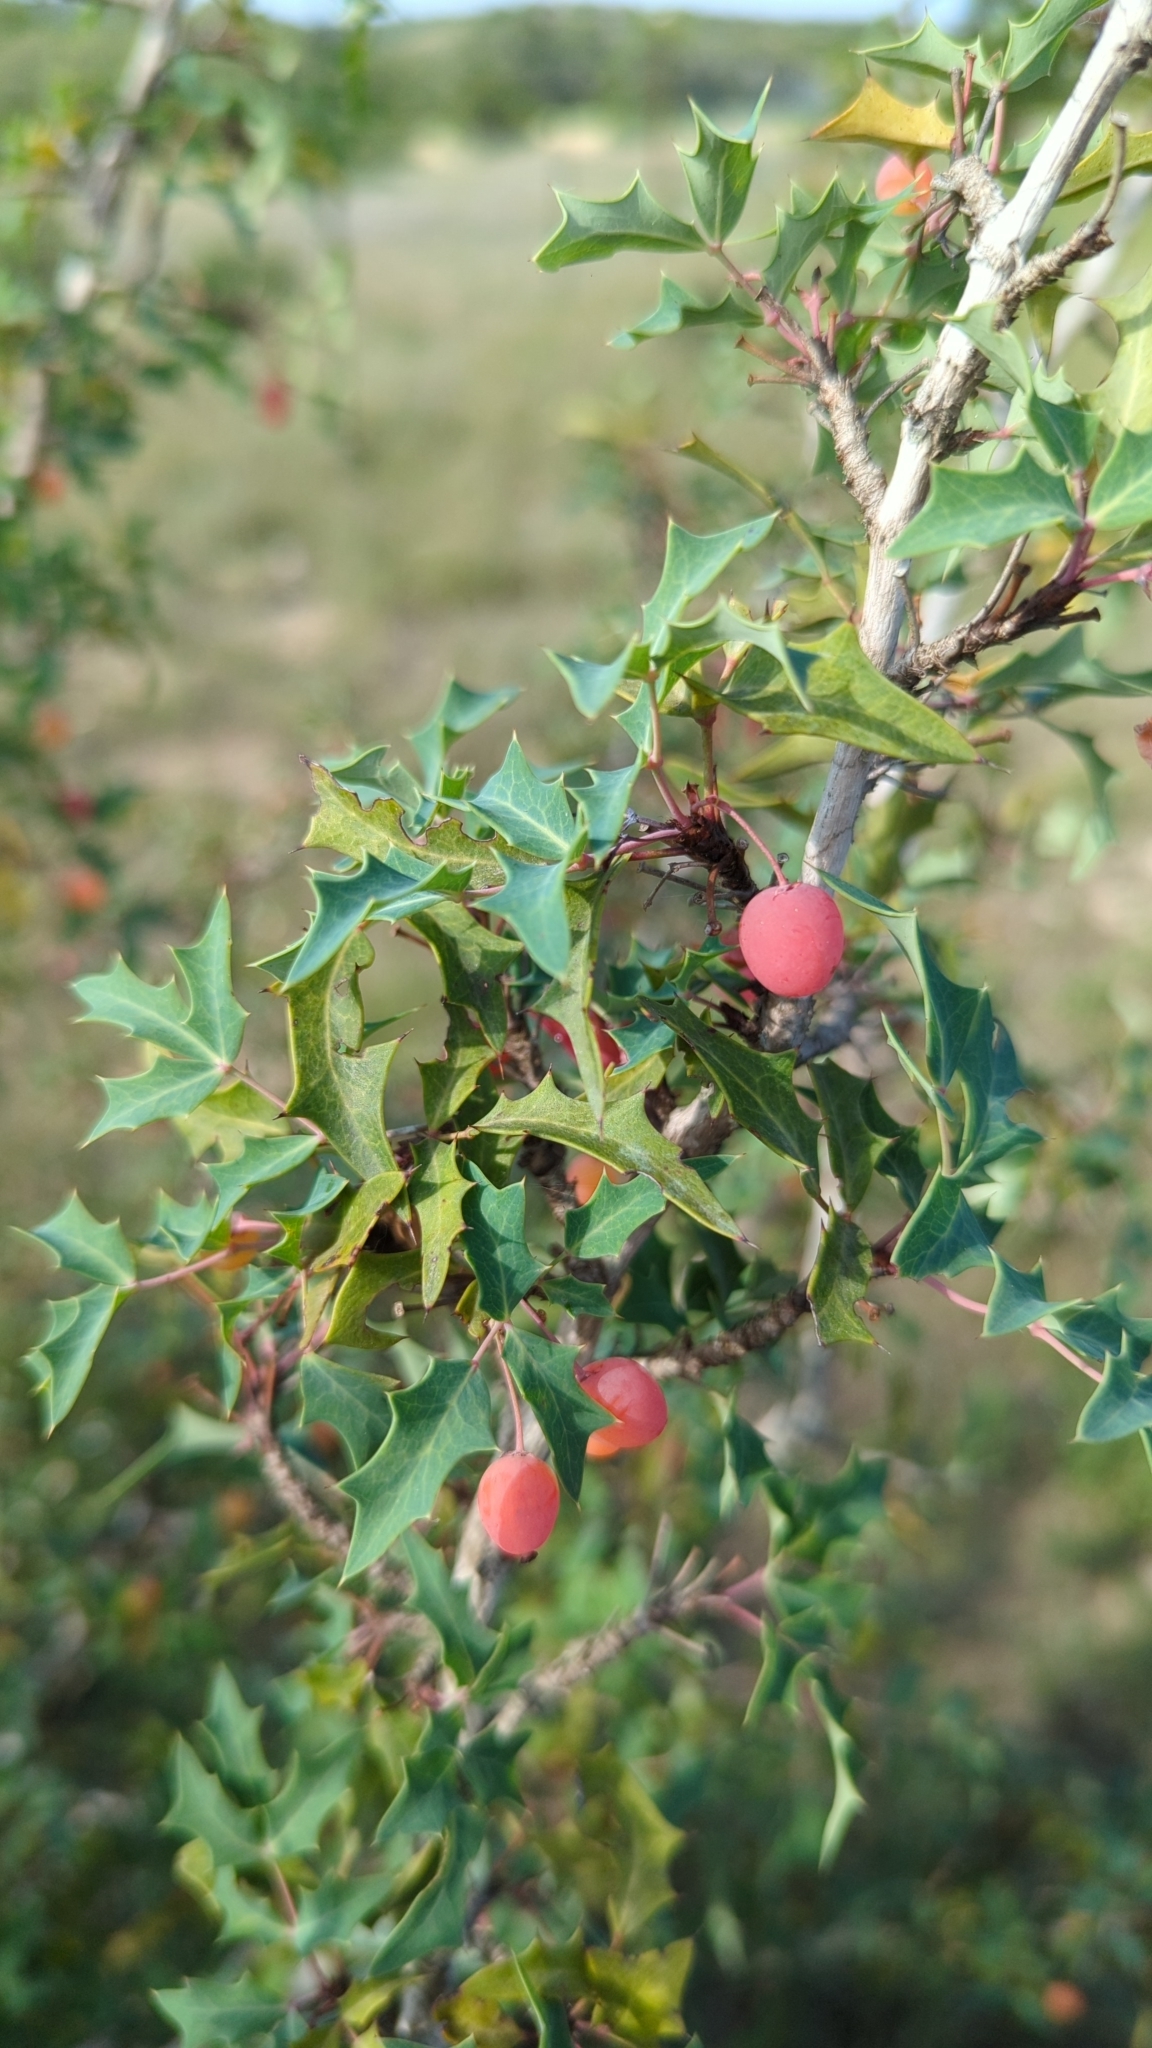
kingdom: Plantae
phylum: Tracheophyta
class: Magnoliopsida
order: Ranunculales
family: Berberidaceae
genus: Berberis
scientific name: Berberis swaseyi
